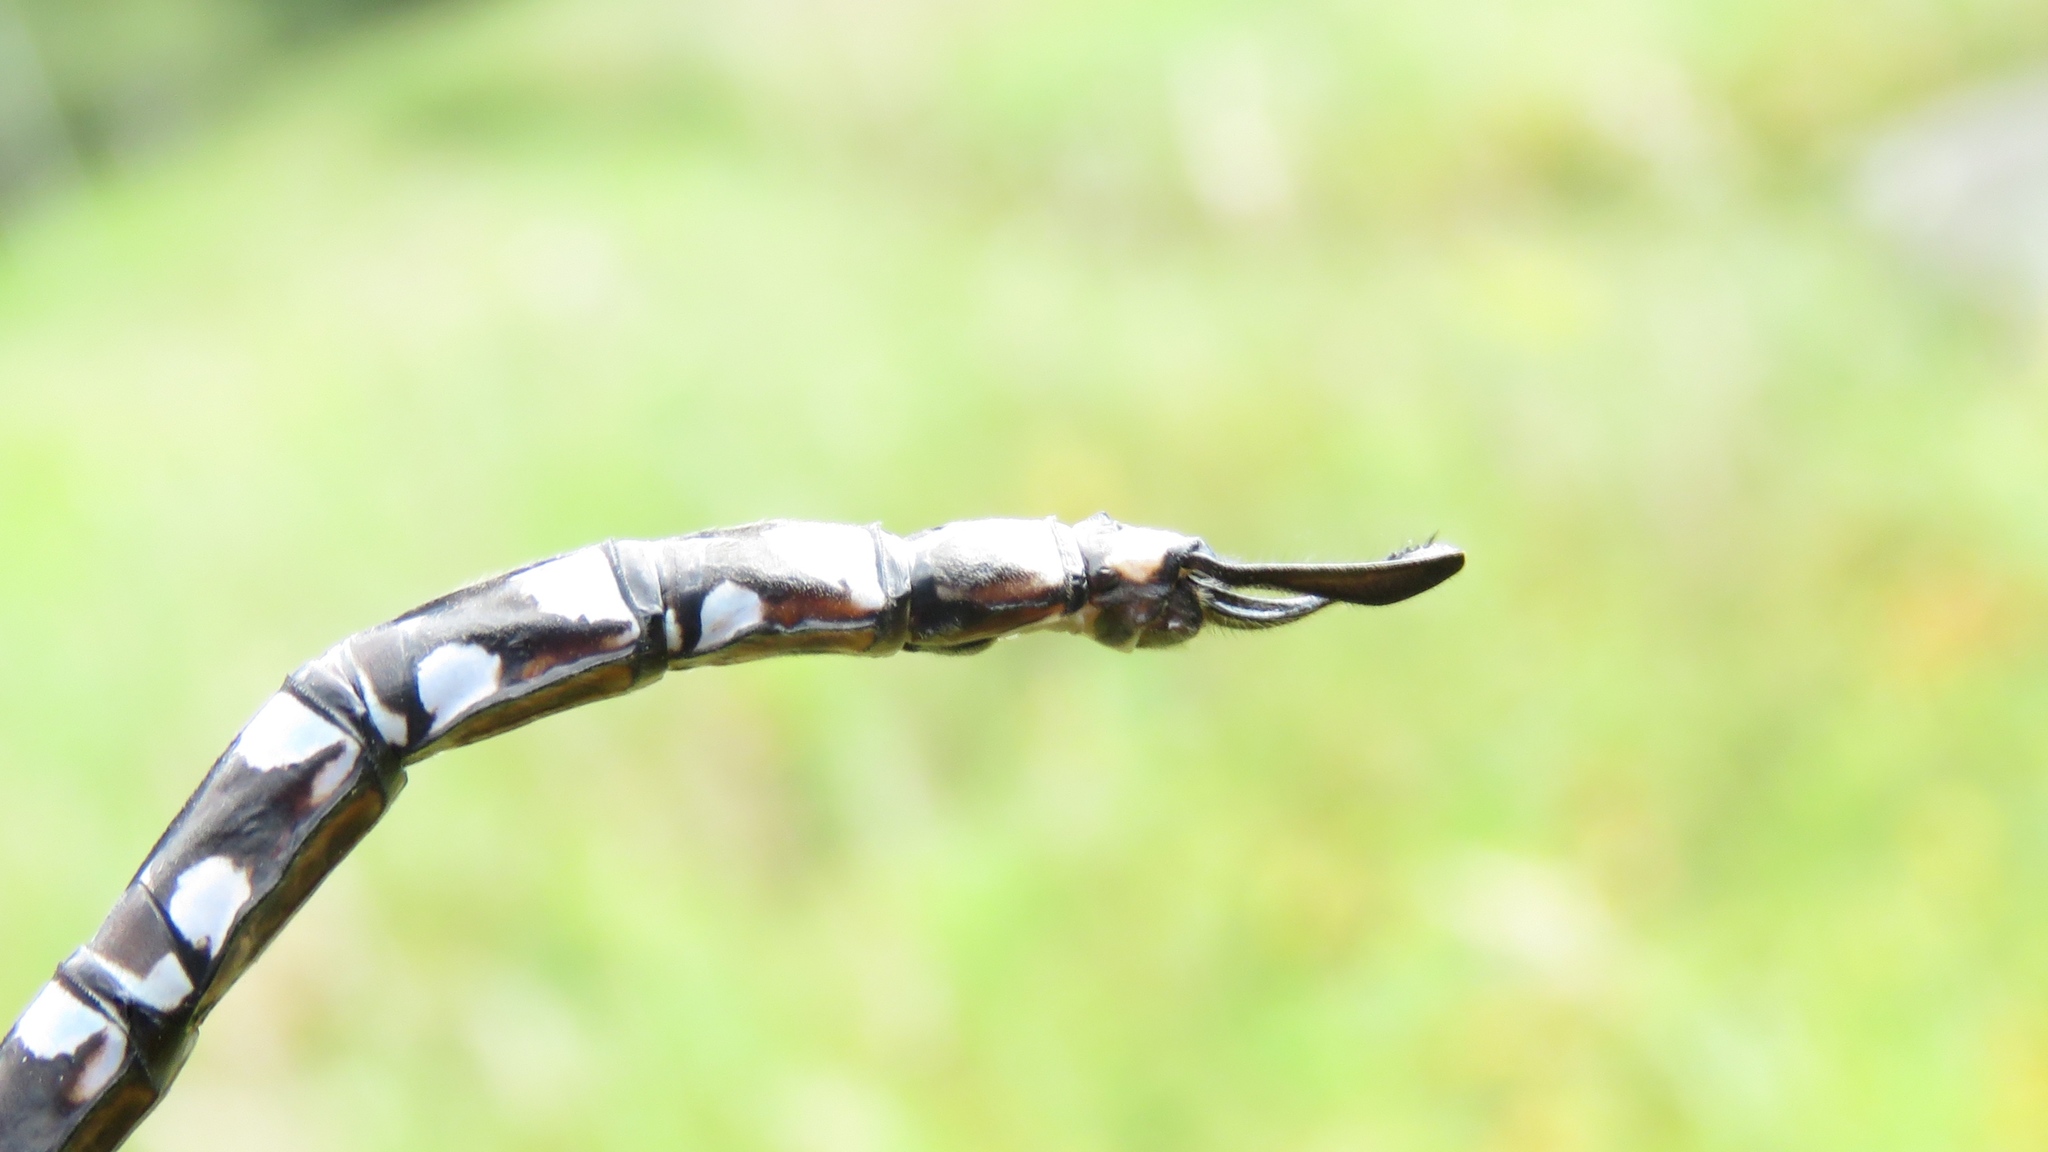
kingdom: Animalia
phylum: Arthropoda
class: Insecta
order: Odonata
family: Aeshnidae
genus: Aeshna
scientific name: Aeshna eremita
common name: Lake darner
